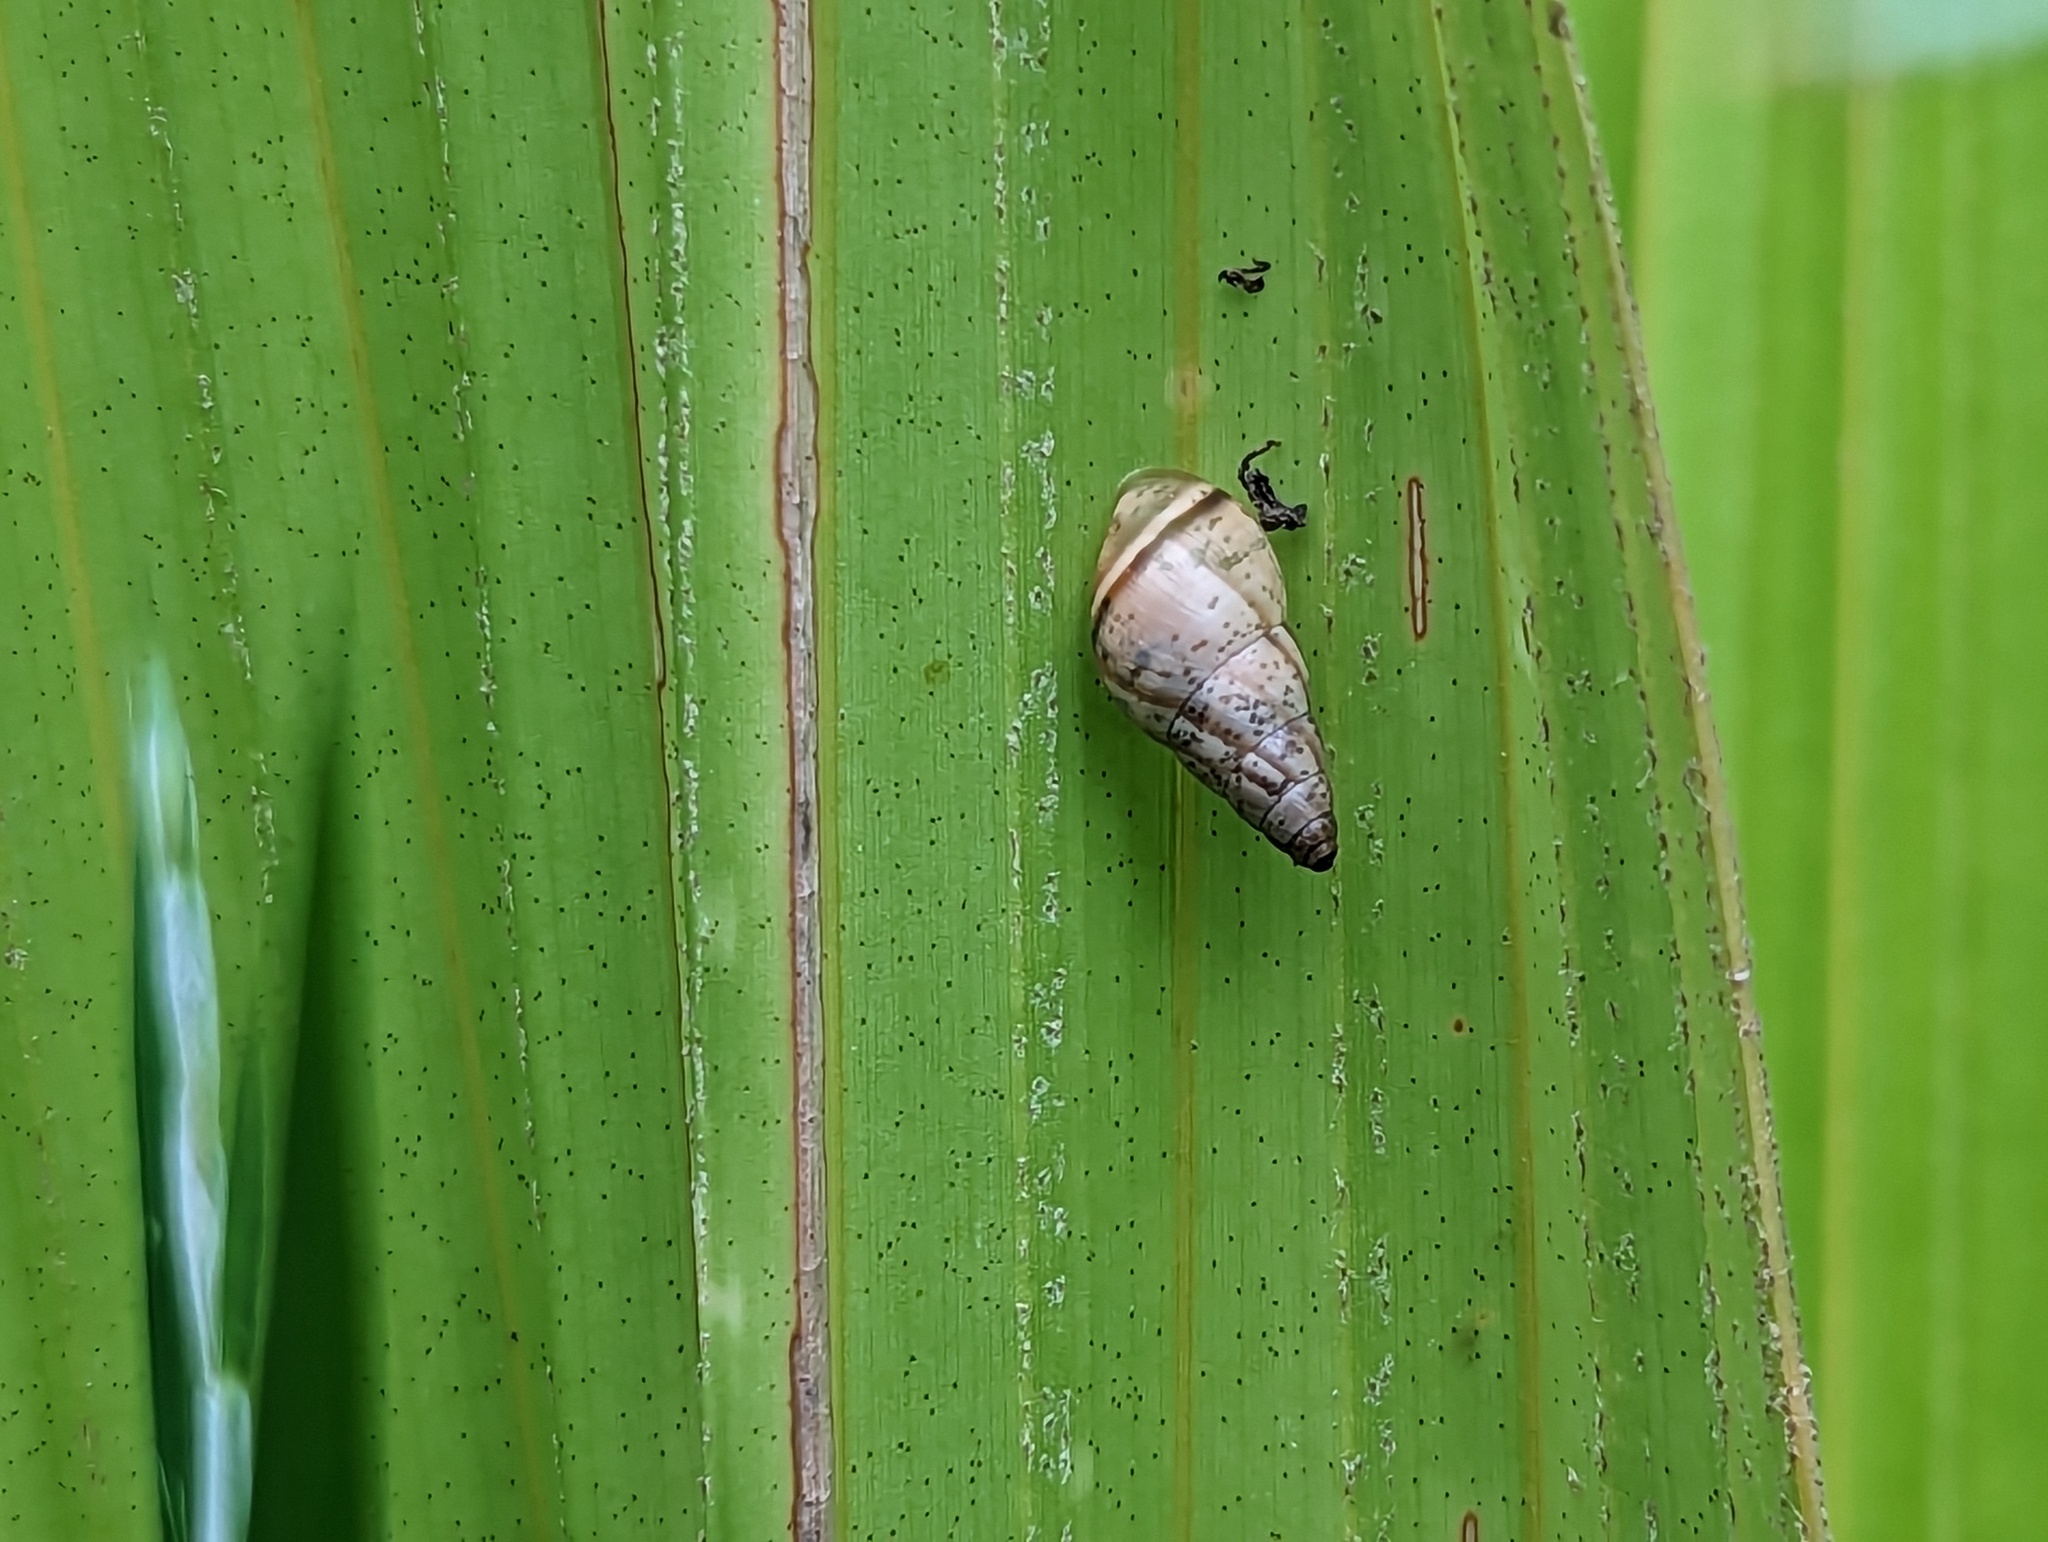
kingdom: Animalia
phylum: Mollusca
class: Gastropoda
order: Stylommatophora
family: Cerastidae
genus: Rachis
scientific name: Rachis punctata
